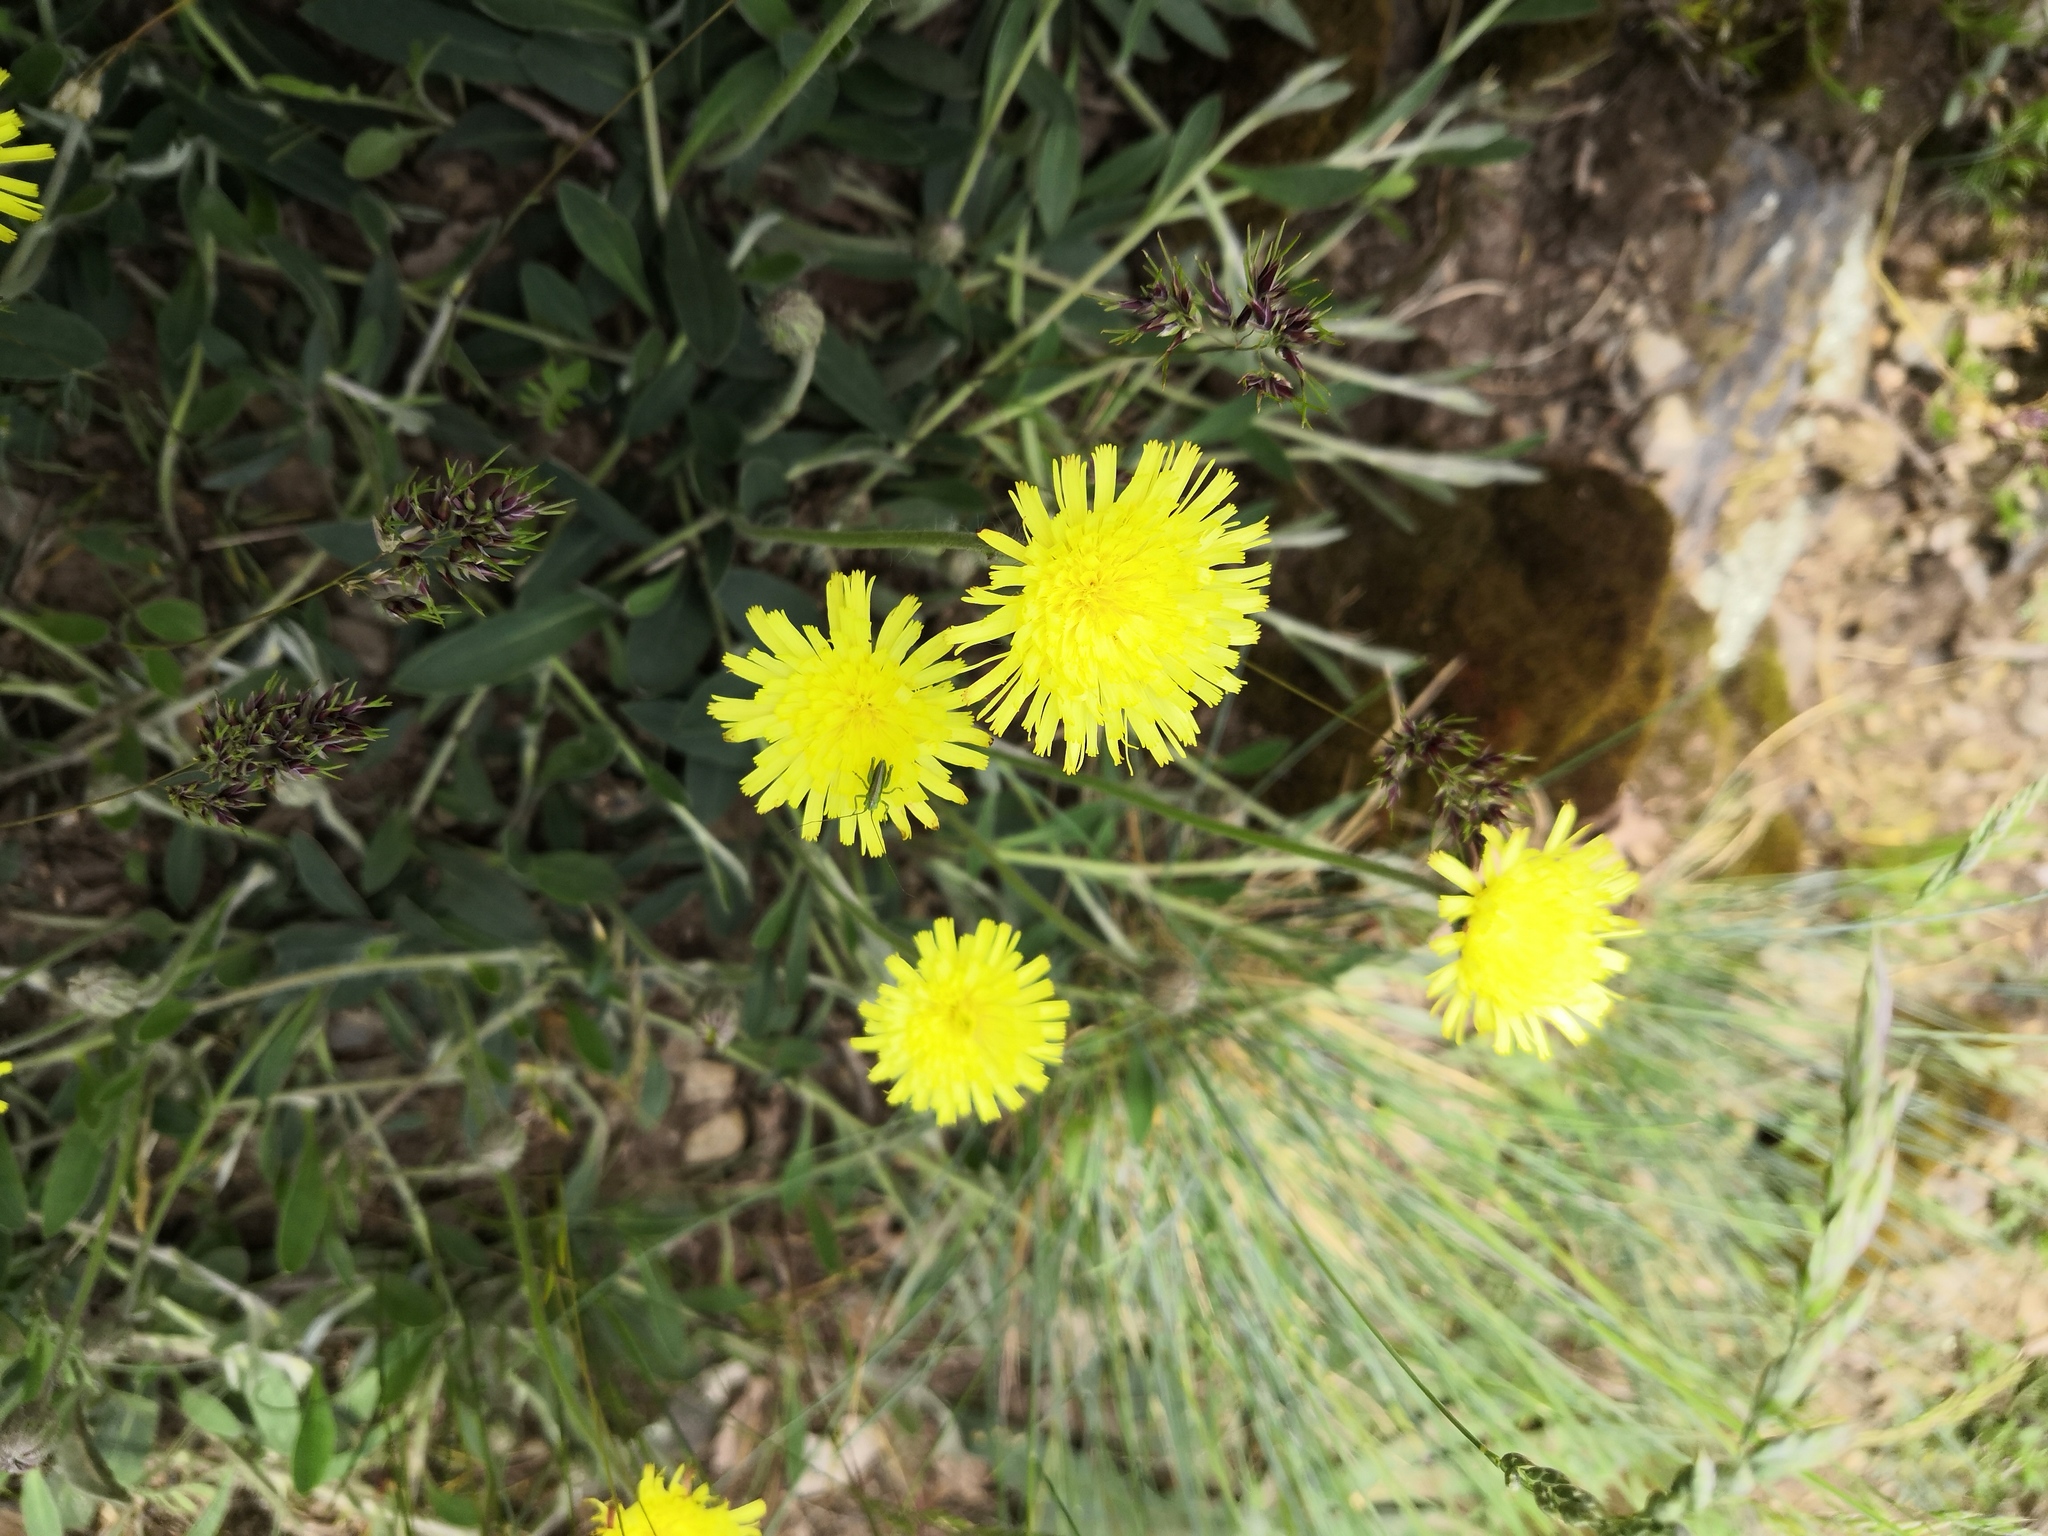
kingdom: Plantae
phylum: Tracheophyta
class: Magnoliopsida
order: Asterales
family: Asteraceae
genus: Pilosella
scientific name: Pilosella officinarum
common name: Mouse-ear hawkweed
